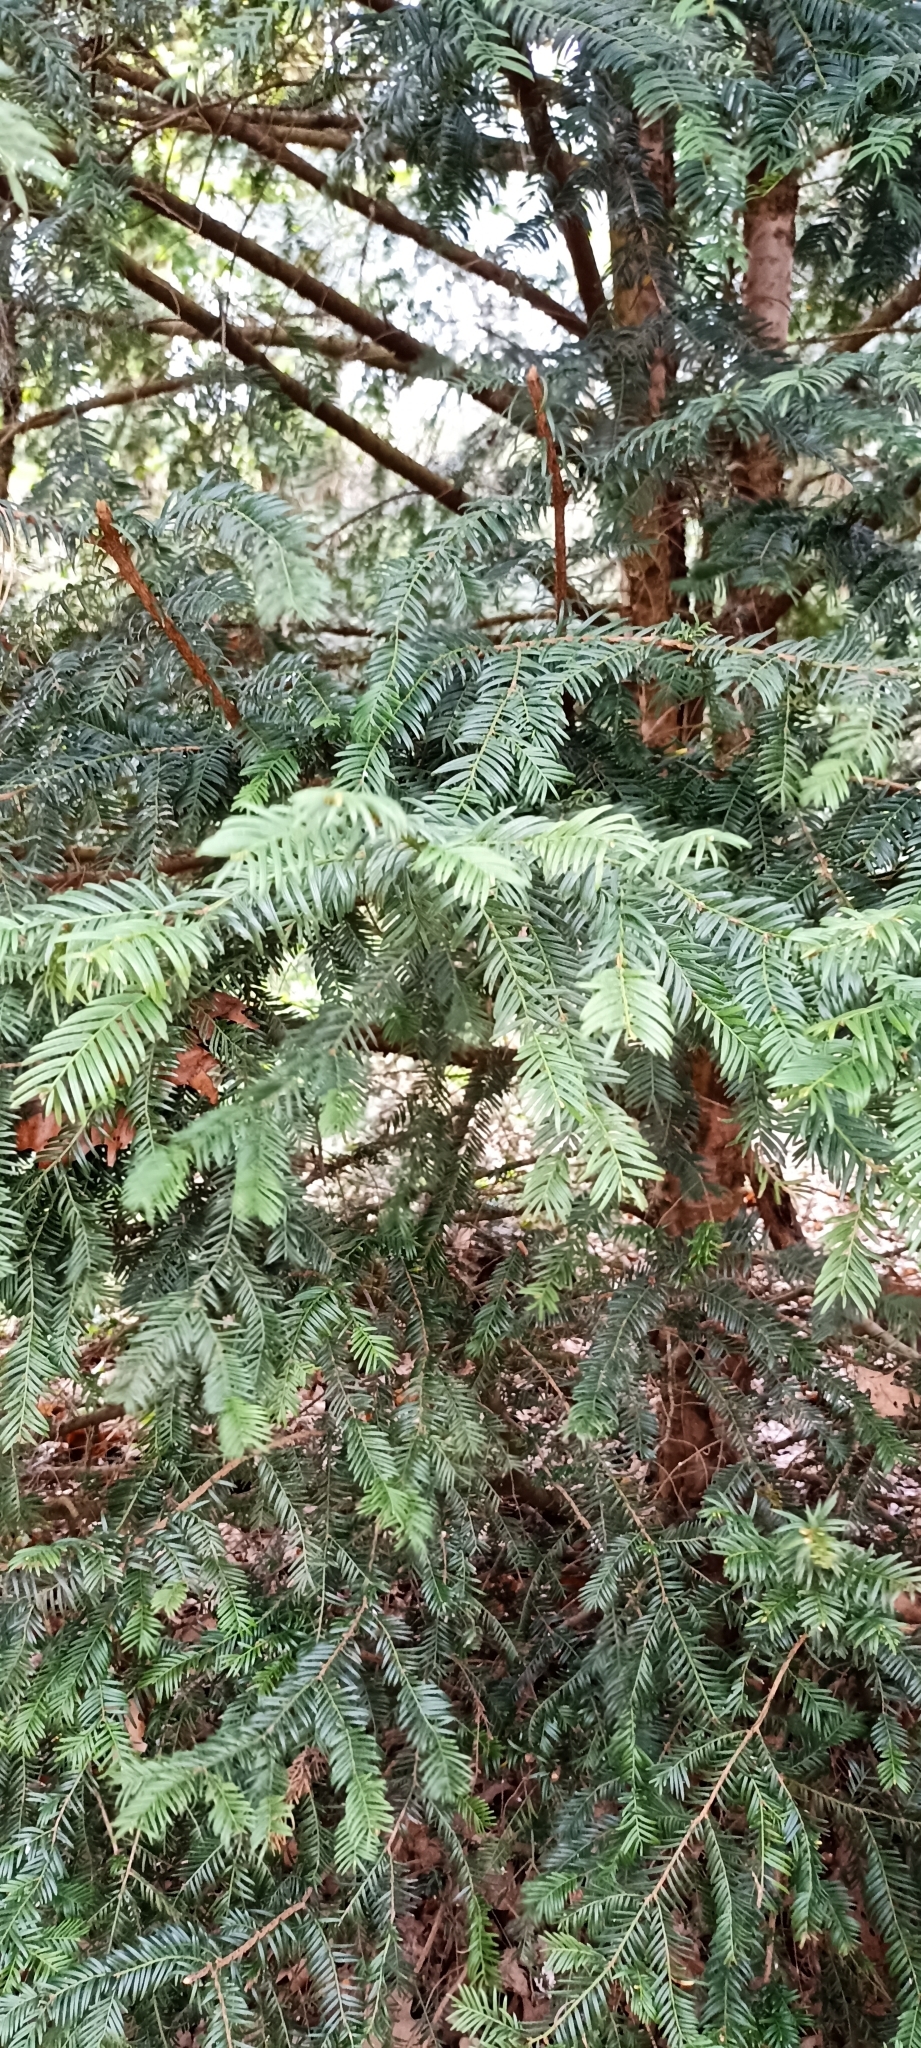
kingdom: Plantae
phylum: Tracheophyta
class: Pinopsida
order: Pinales
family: Taxaceae
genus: Taxus
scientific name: Taxus baccata
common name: Yew
